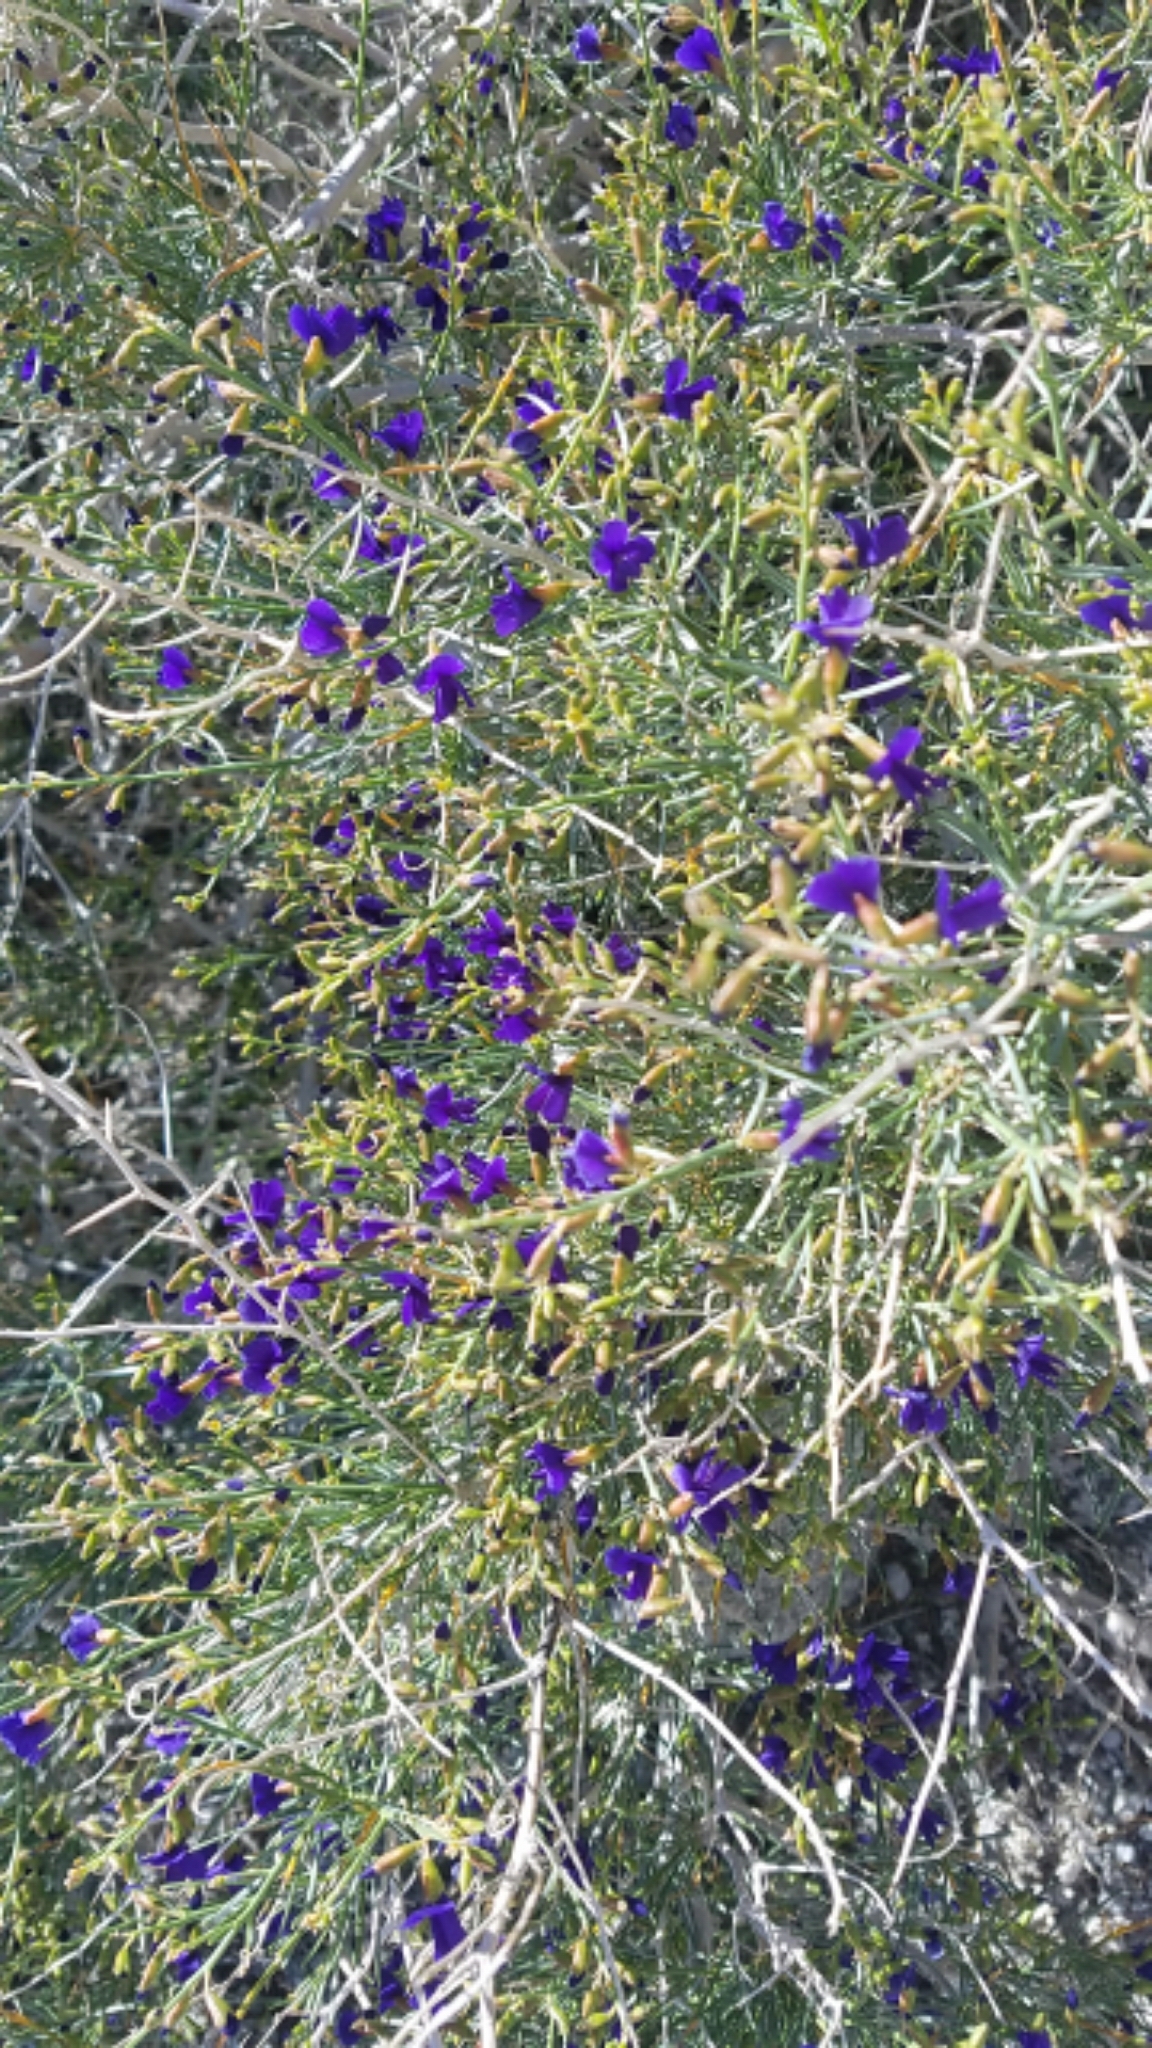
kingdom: Plantae
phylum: Tracheophyta
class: Magnoliopsida
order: Fabales
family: Fabaceae
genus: Psorothamnus
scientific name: Psorothamnus schottii
